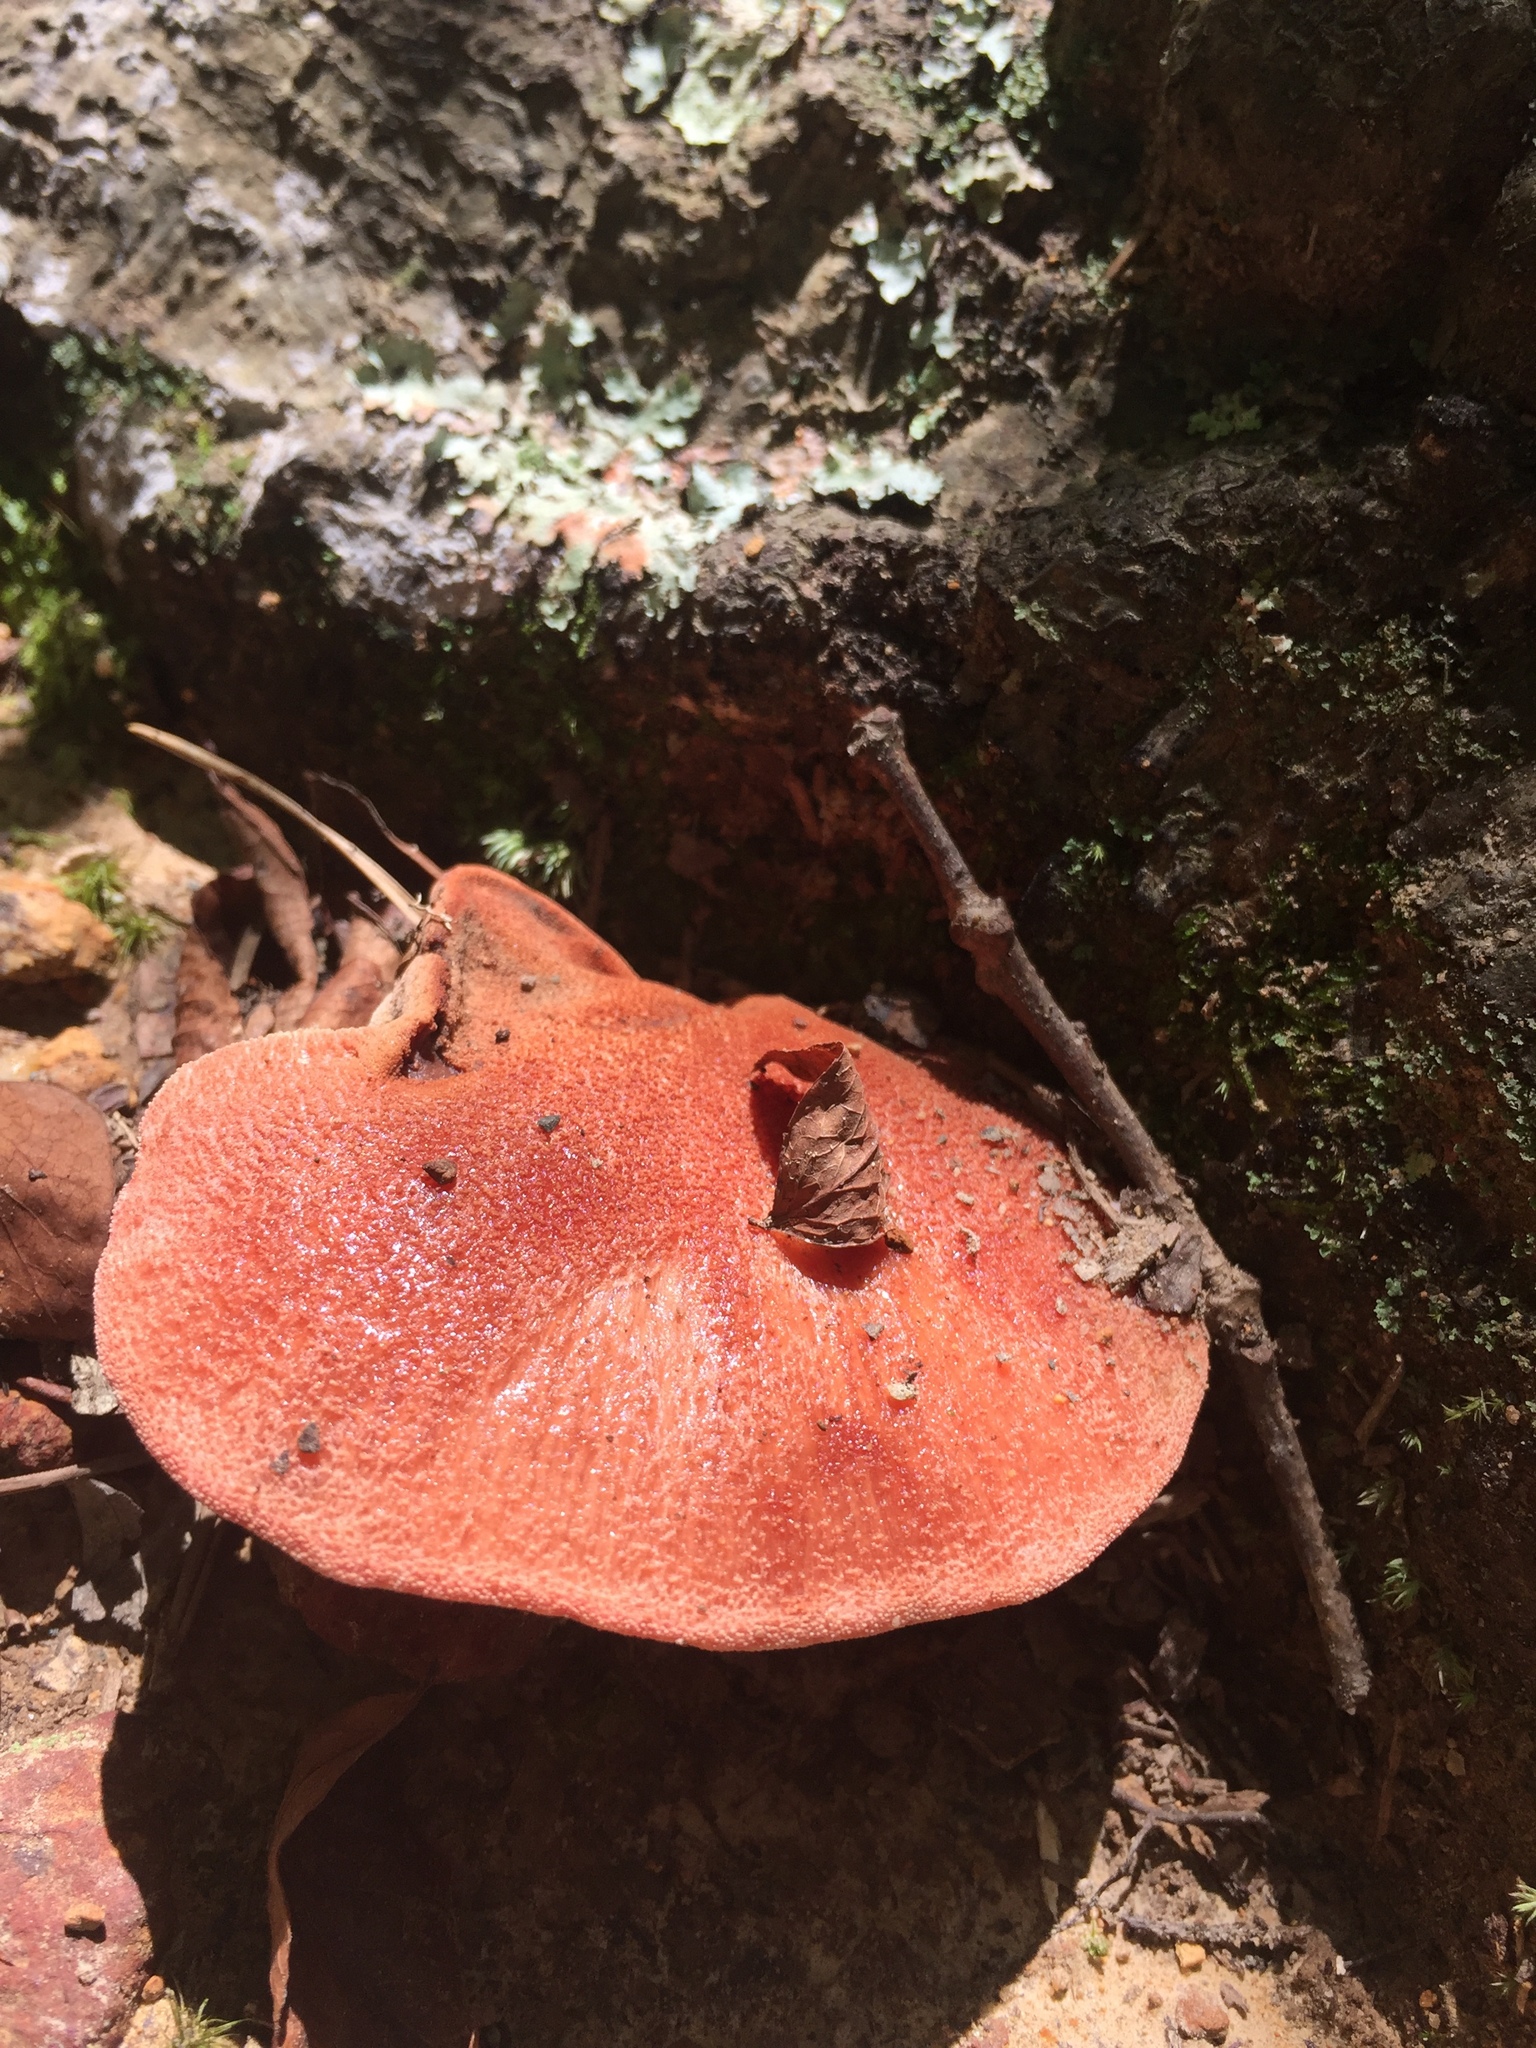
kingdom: Fungi
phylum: Basidiomycota
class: Agaricomycetes
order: Agaricales
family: Fistulinaceae
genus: Fistulina
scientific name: Fistulina hepatica
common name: Beef-steak fungus
